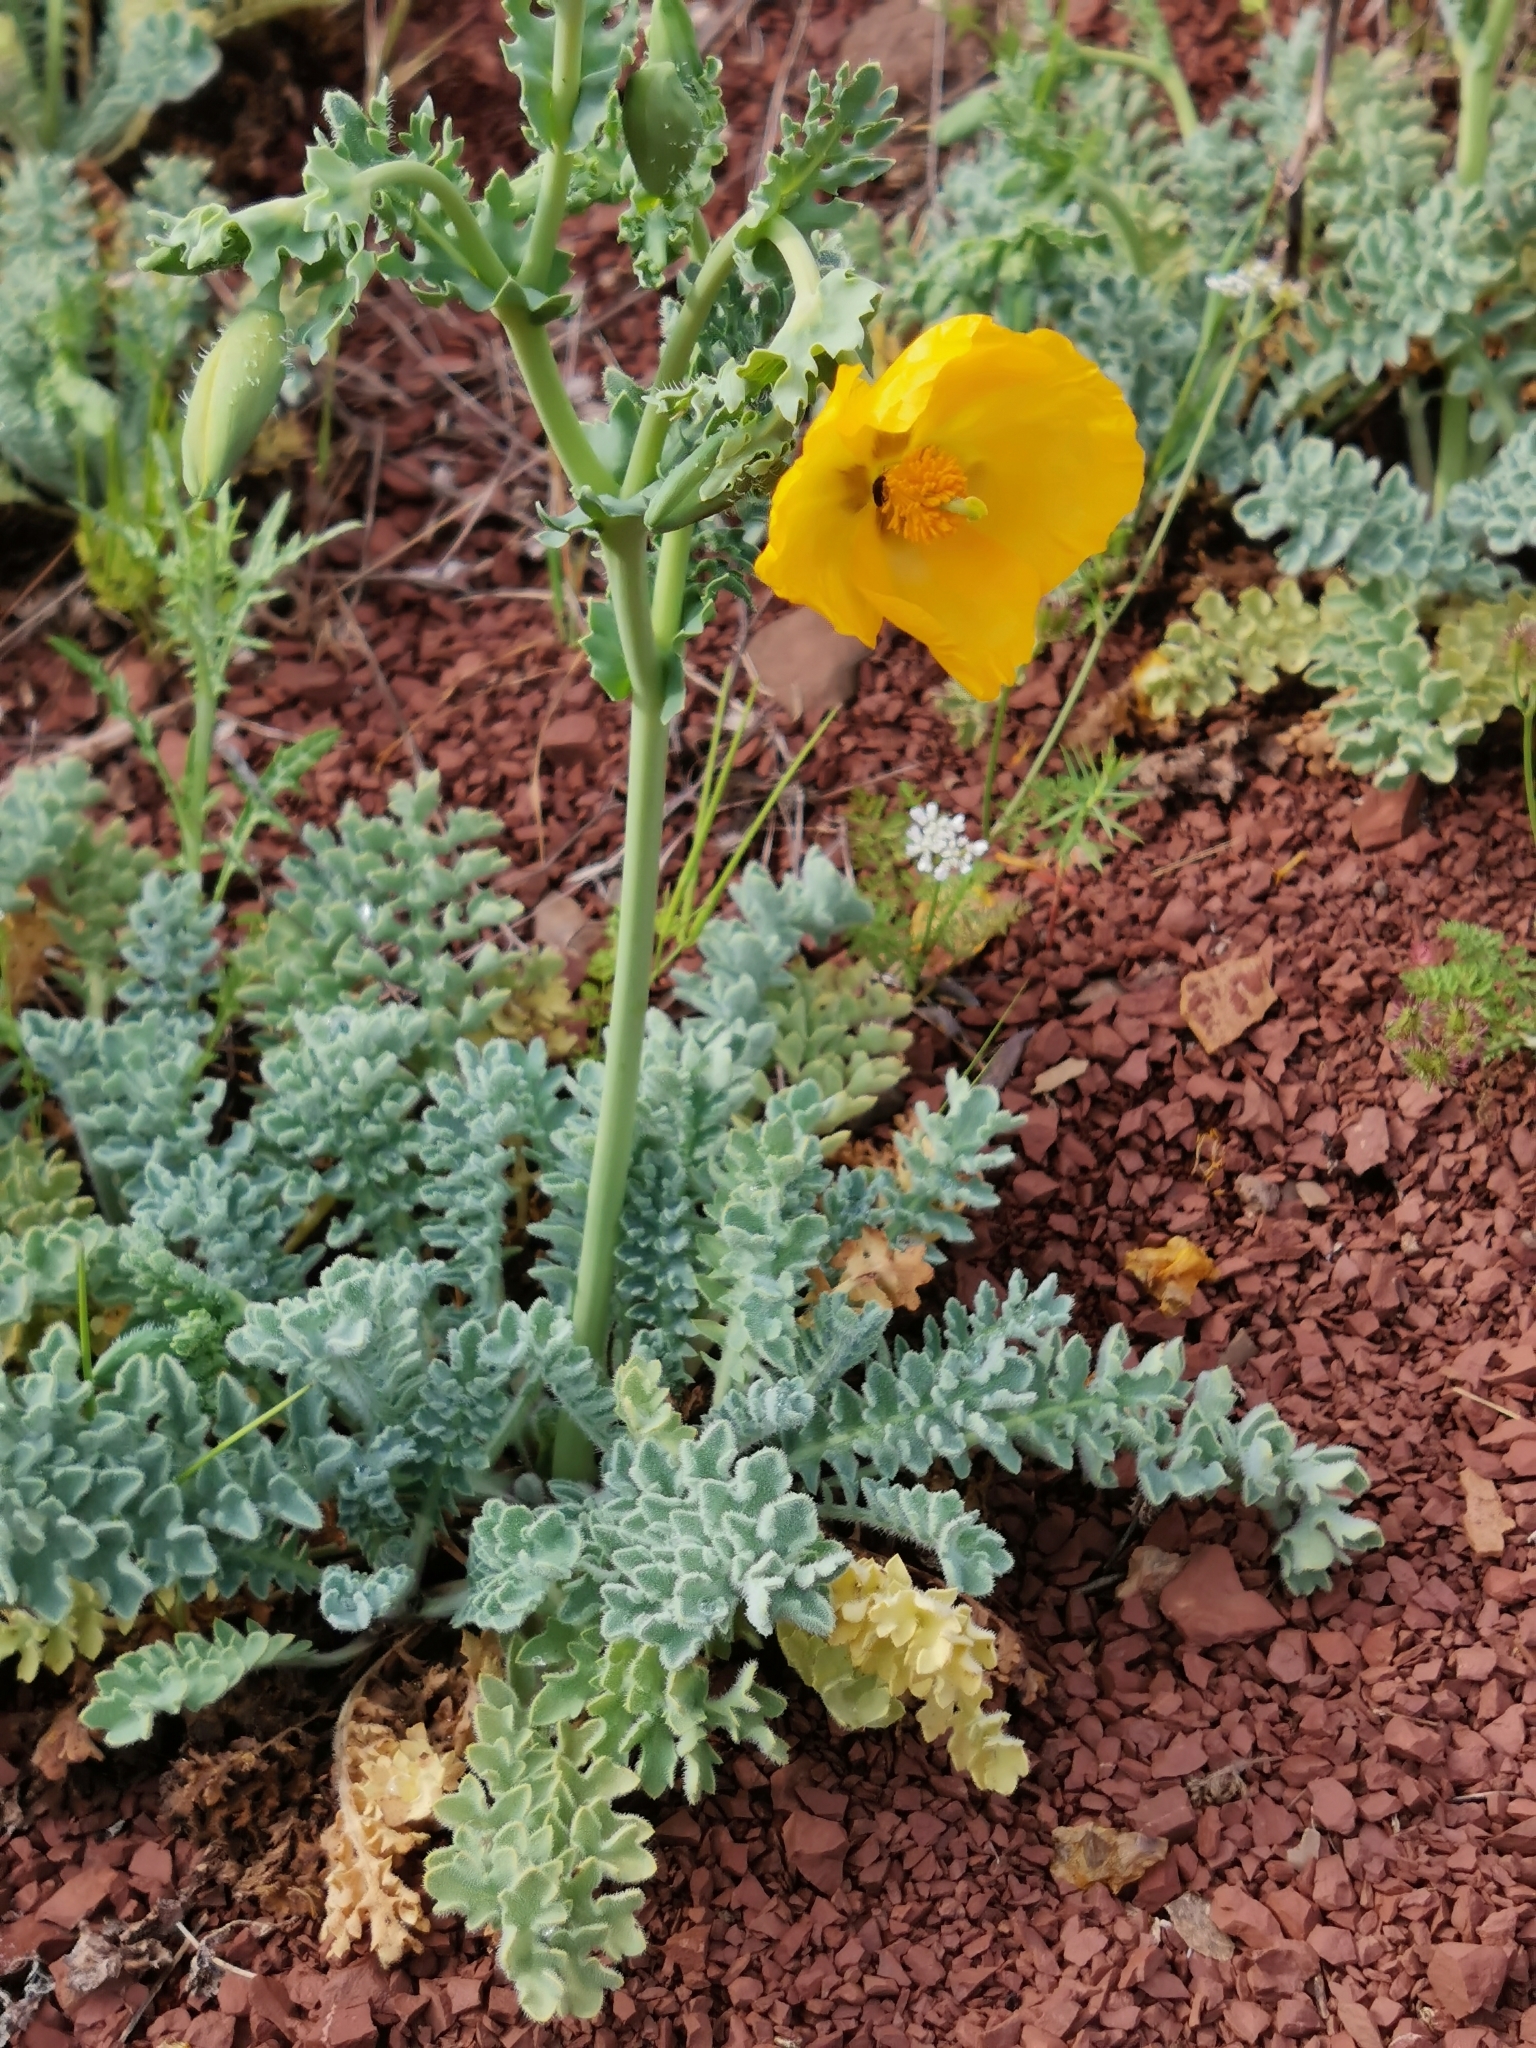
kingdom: Plantae
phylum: Tracheophyta
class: Magnoliopsida
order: Ranunculales
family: Papaveraceae
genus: Glaucium
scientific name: Glaucium flavum
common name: Yellow horned-poppy
